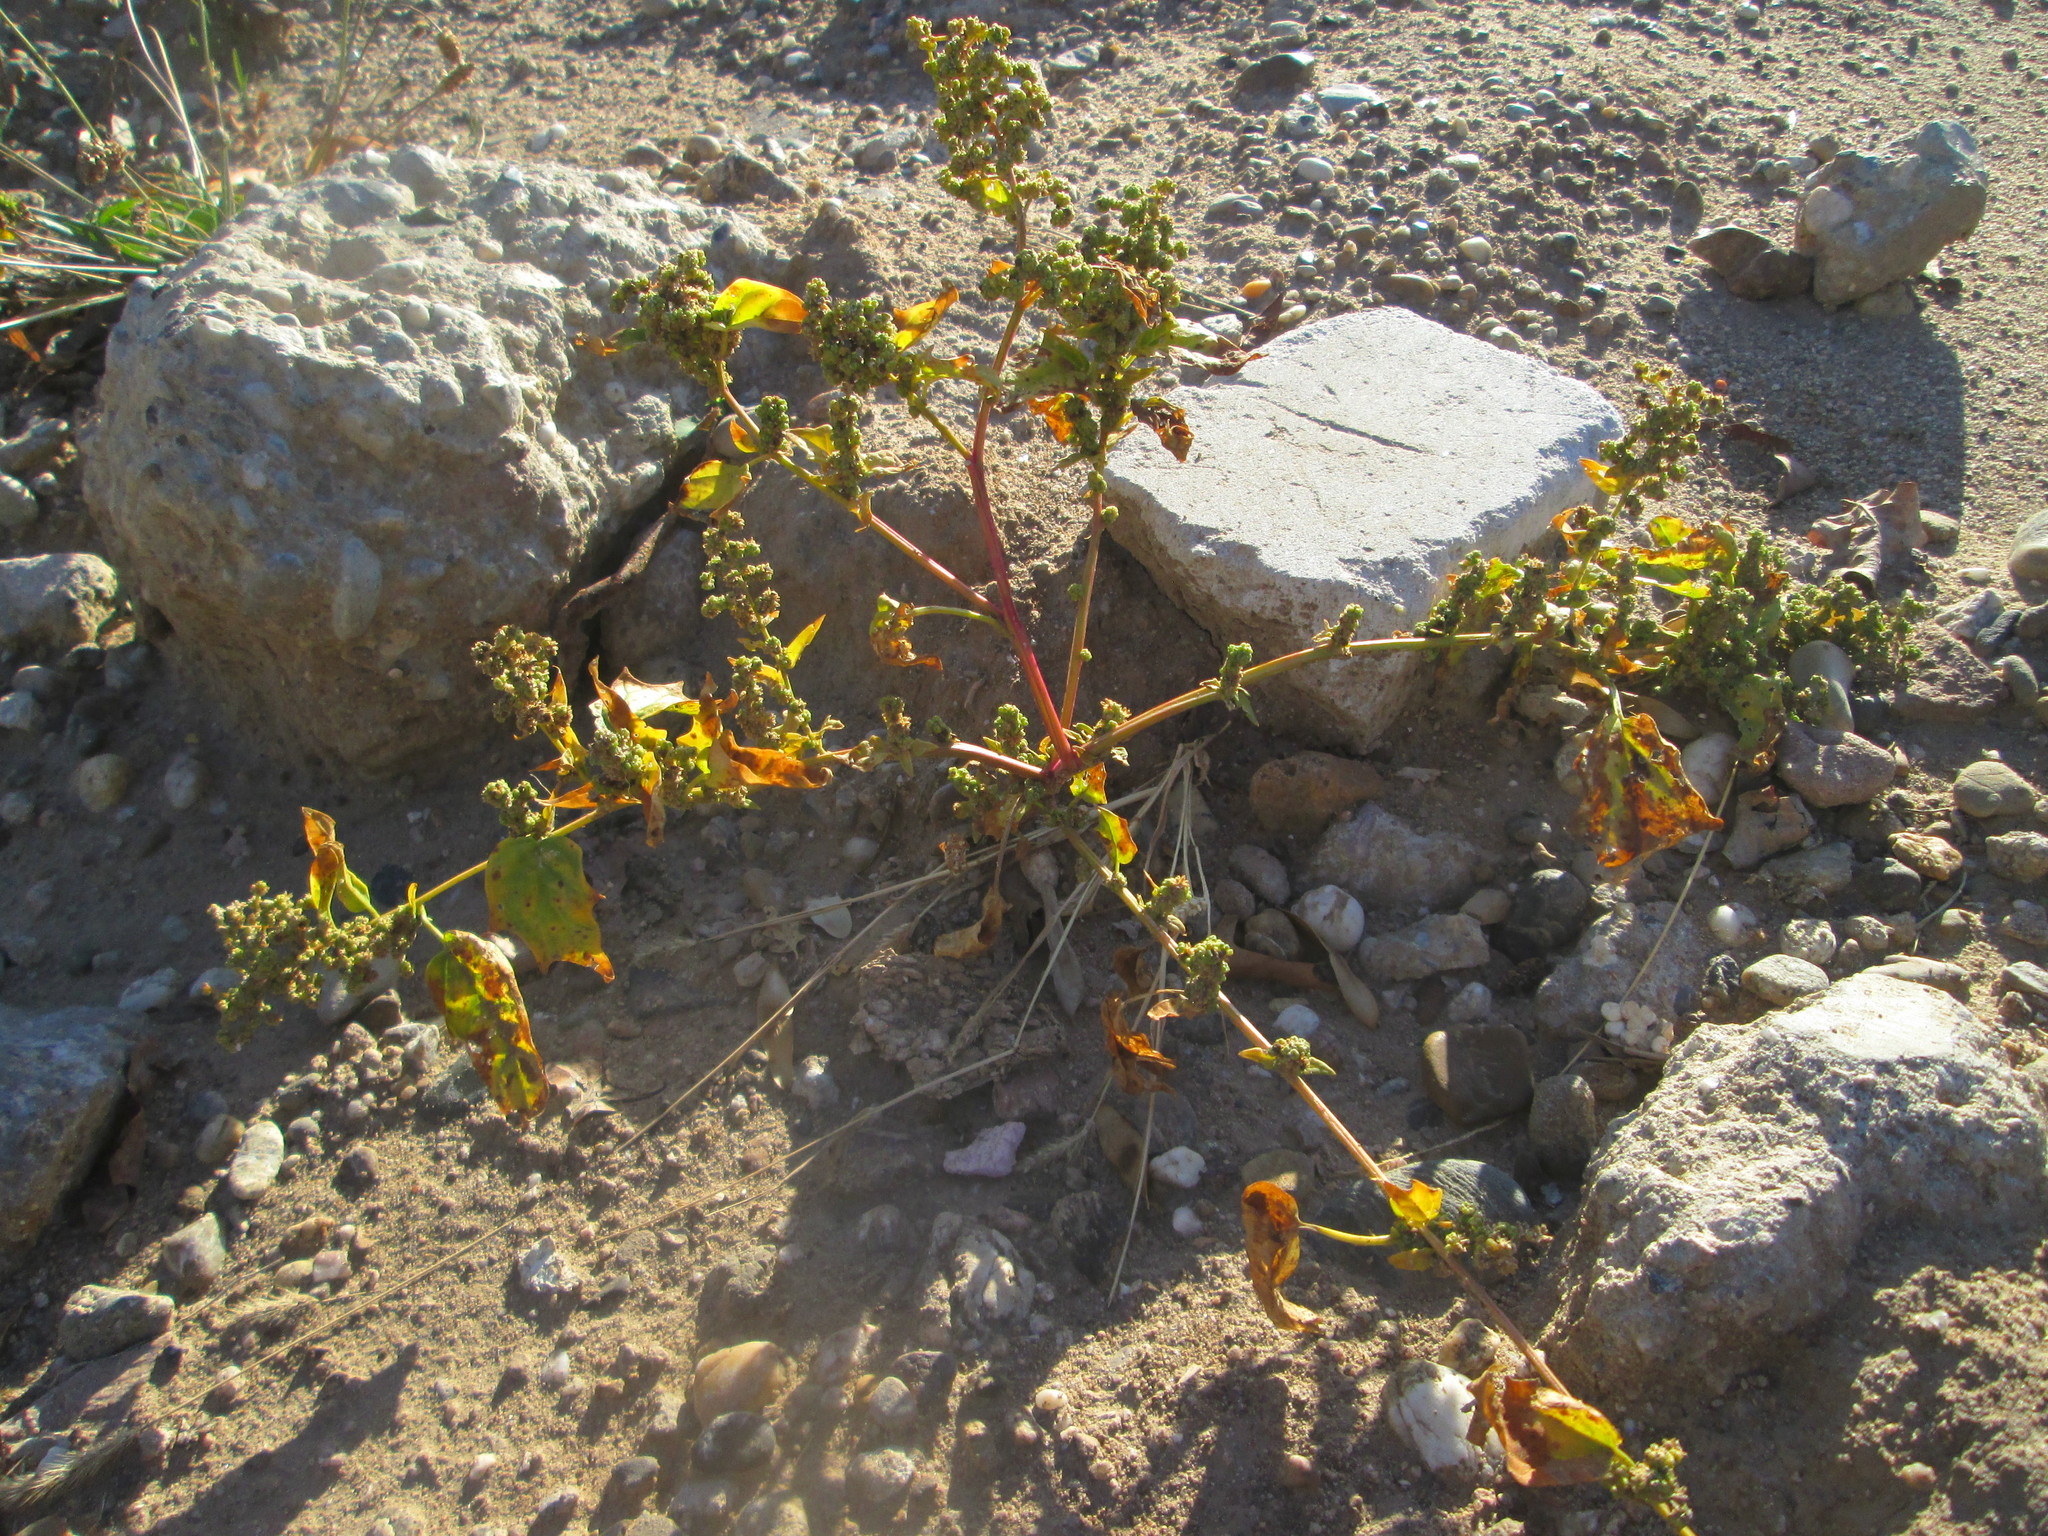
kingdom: Plantae
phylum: Tracheophyta
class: Magnoliopsida
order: Caryophyllales
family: Amaranthaceae
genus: Chenopodiastrum
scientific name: Chenopodiastrum hybridum
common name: Mapleleaf goosefoot
